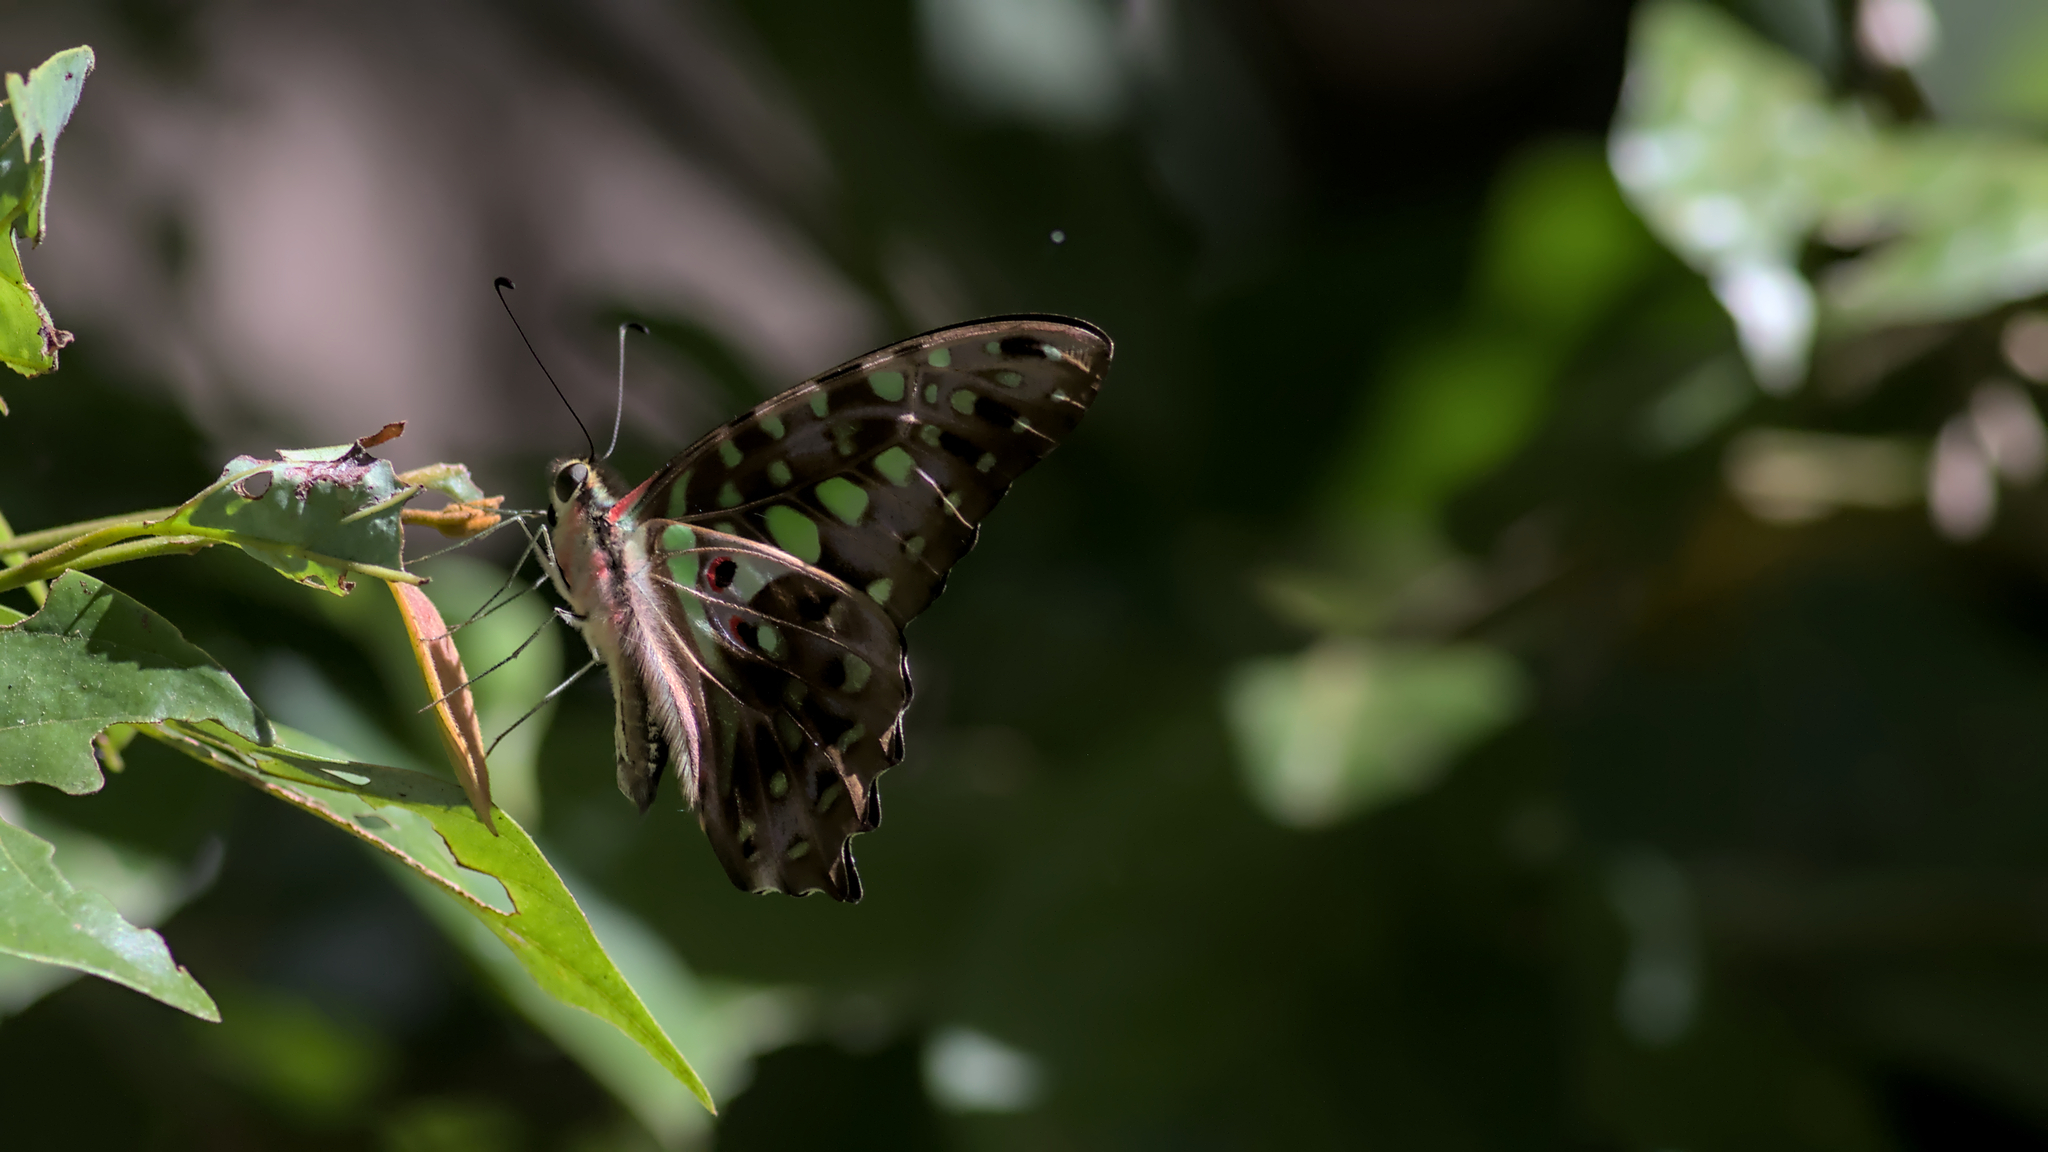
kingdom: Animalia
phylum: Arthropoda
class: Insecta
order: Lepidoptera
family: Papilionidae
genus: Graphium
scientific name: Graphium agamemnon
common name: Tailed jay
